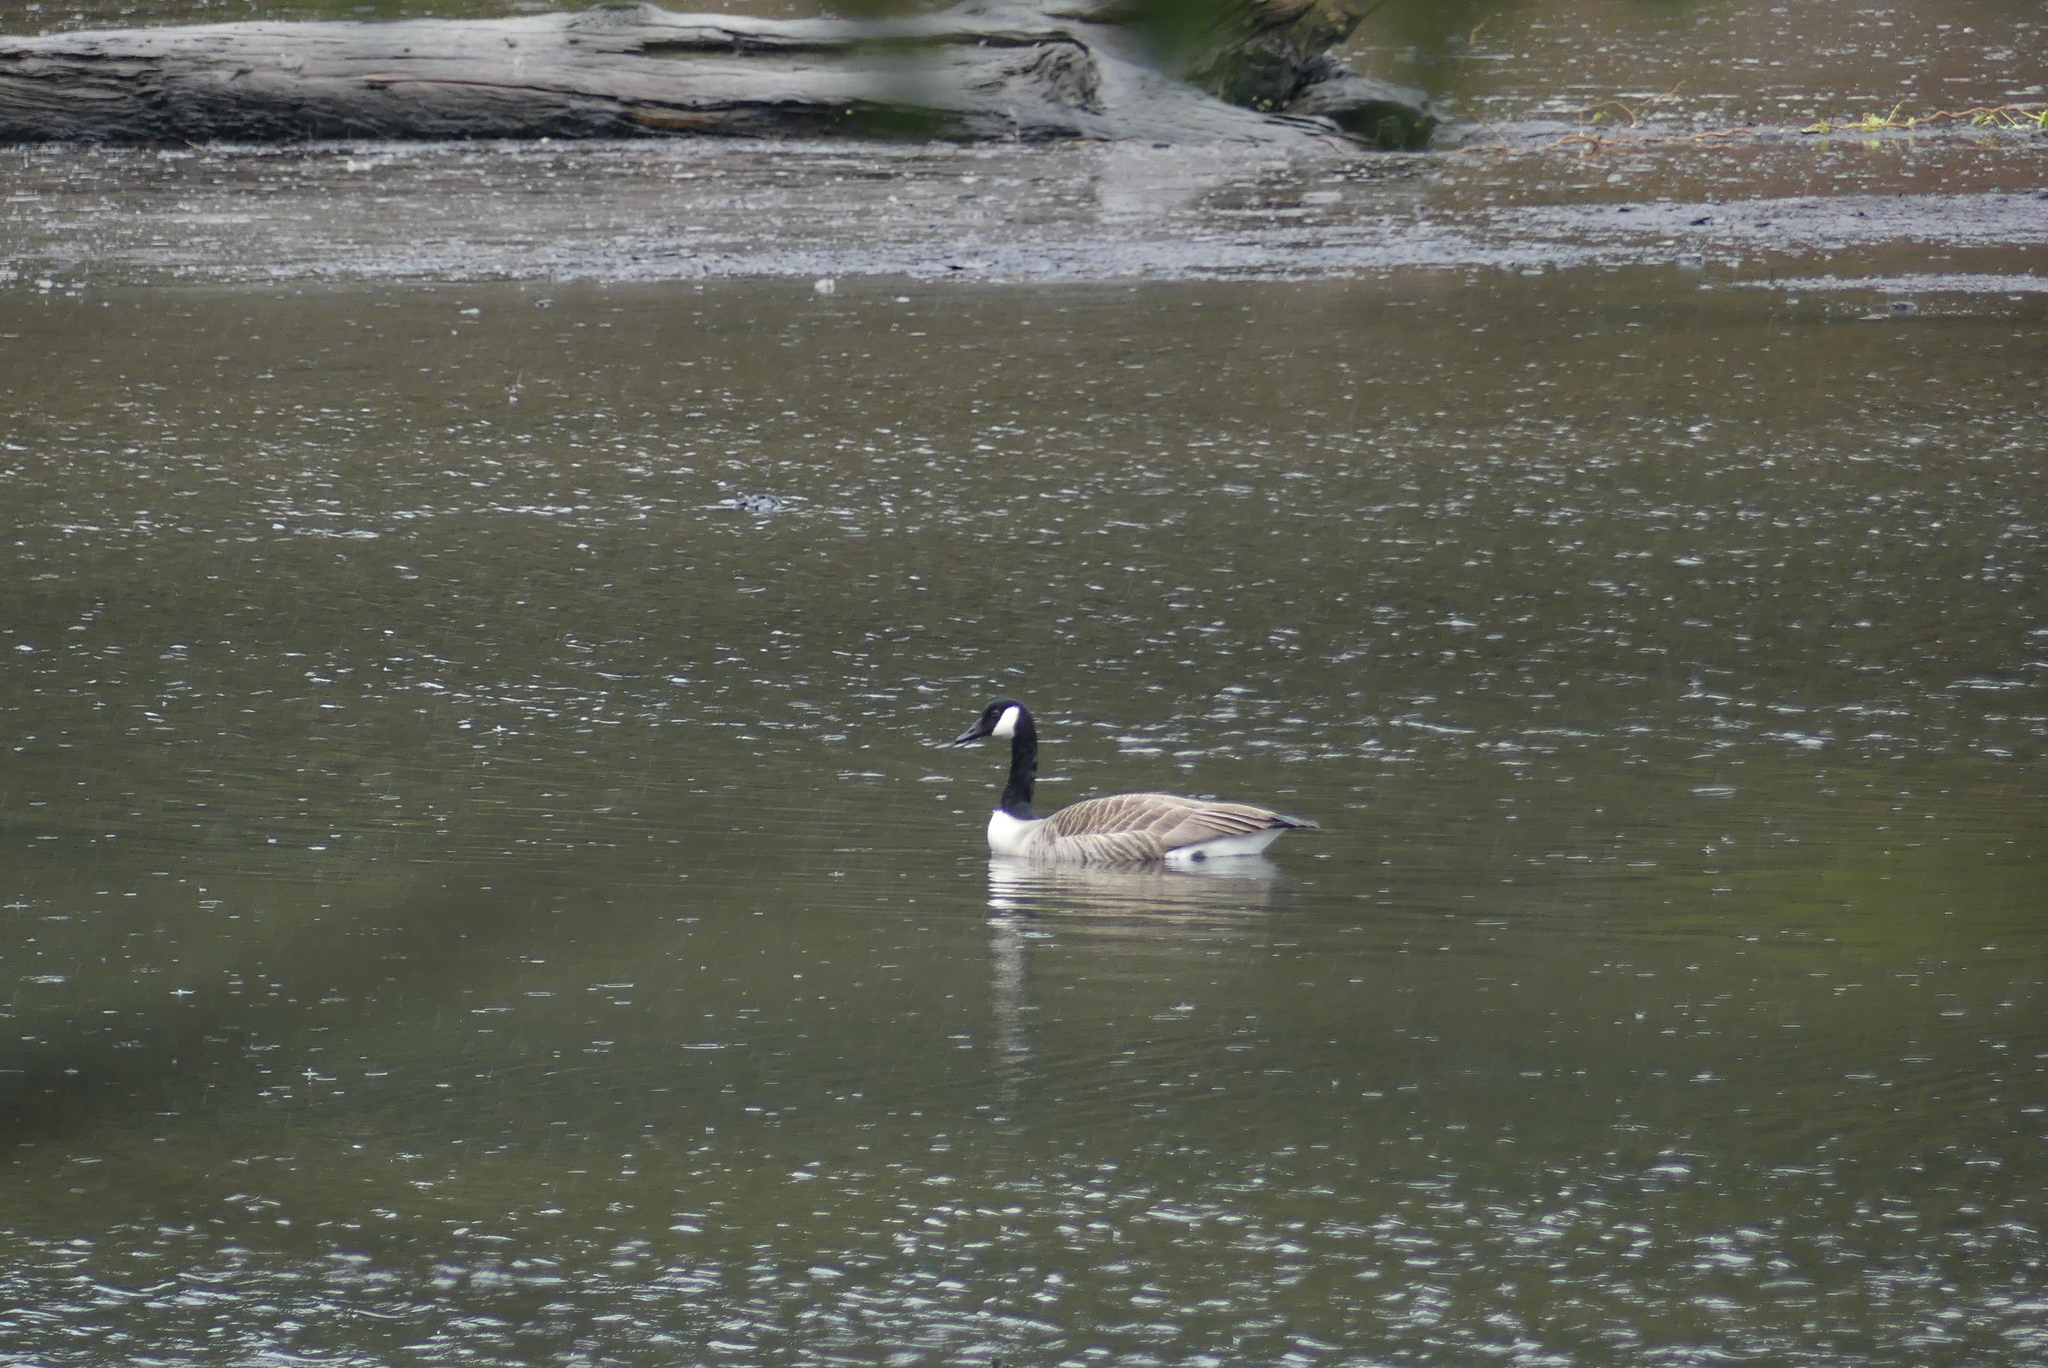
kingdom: Animalia
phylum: Chordata
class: Aves
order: Anseriformes
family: Anatidae
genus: Branta
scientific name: Branta canadensis
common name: Canada goose
